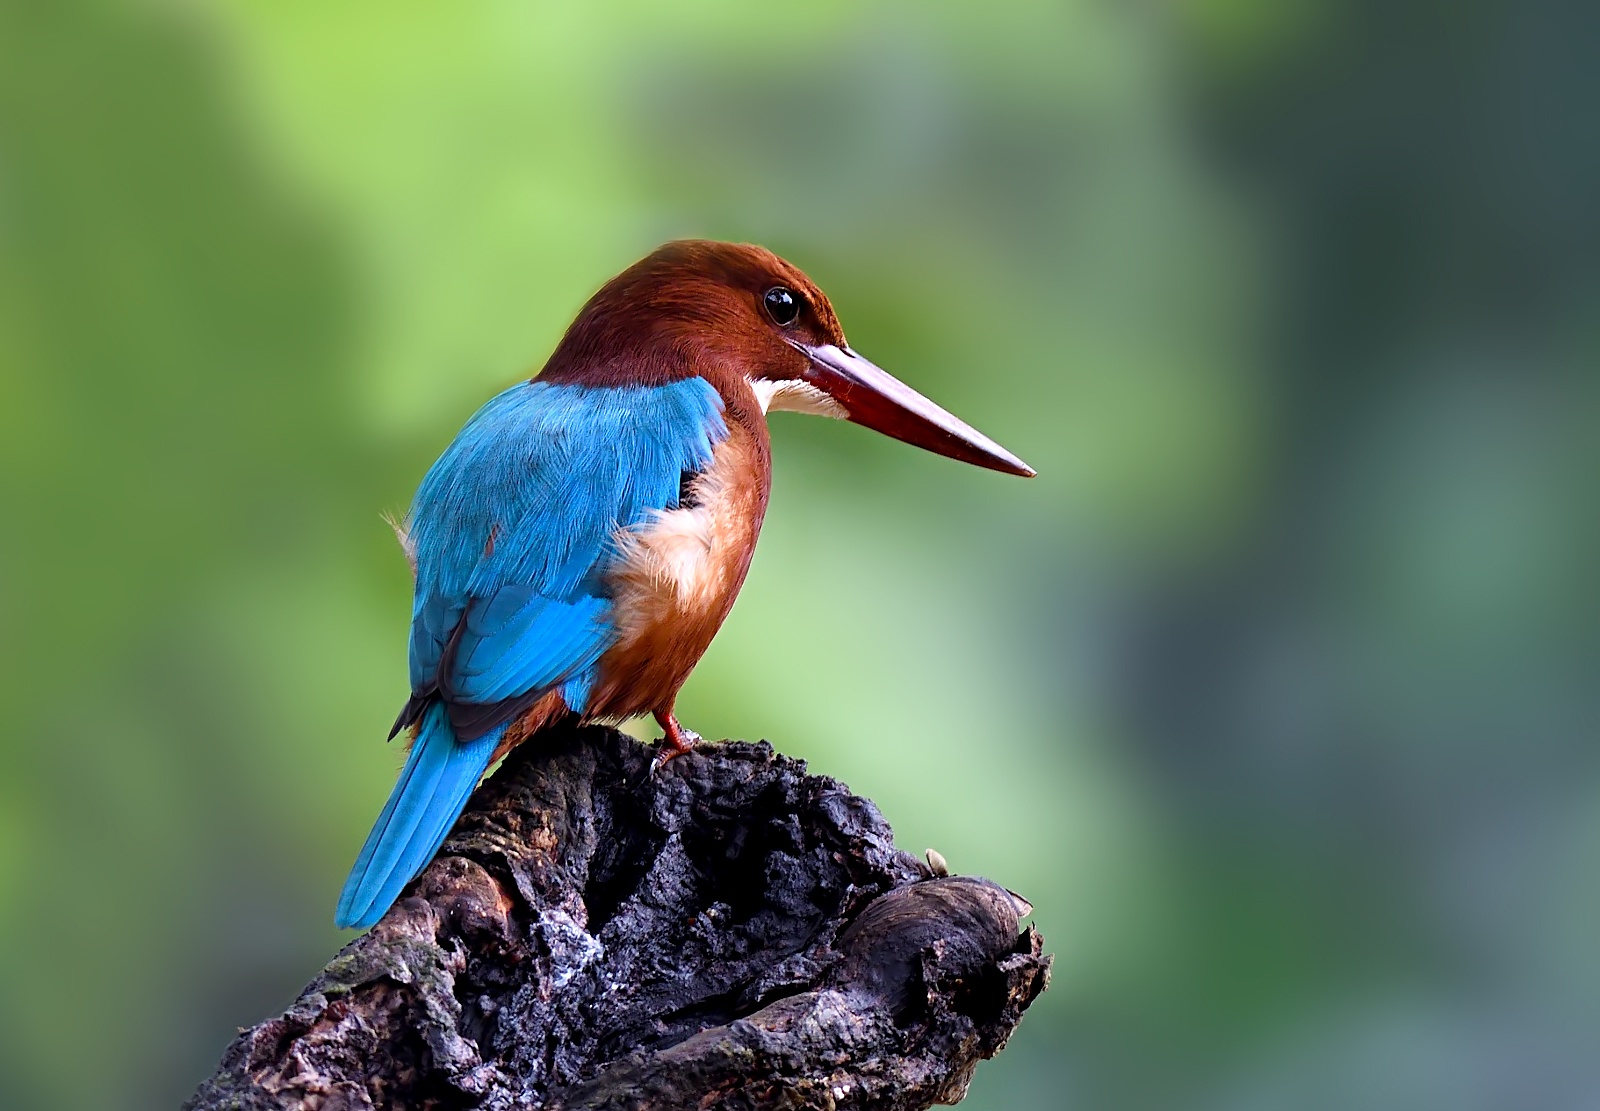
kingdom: Animalia
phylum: Chordata
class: Aves
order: Coraciiformes
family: Alcedinidae
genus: Halcyon
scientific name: Halcyon smyrnensis
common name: White-throated kingfisher
